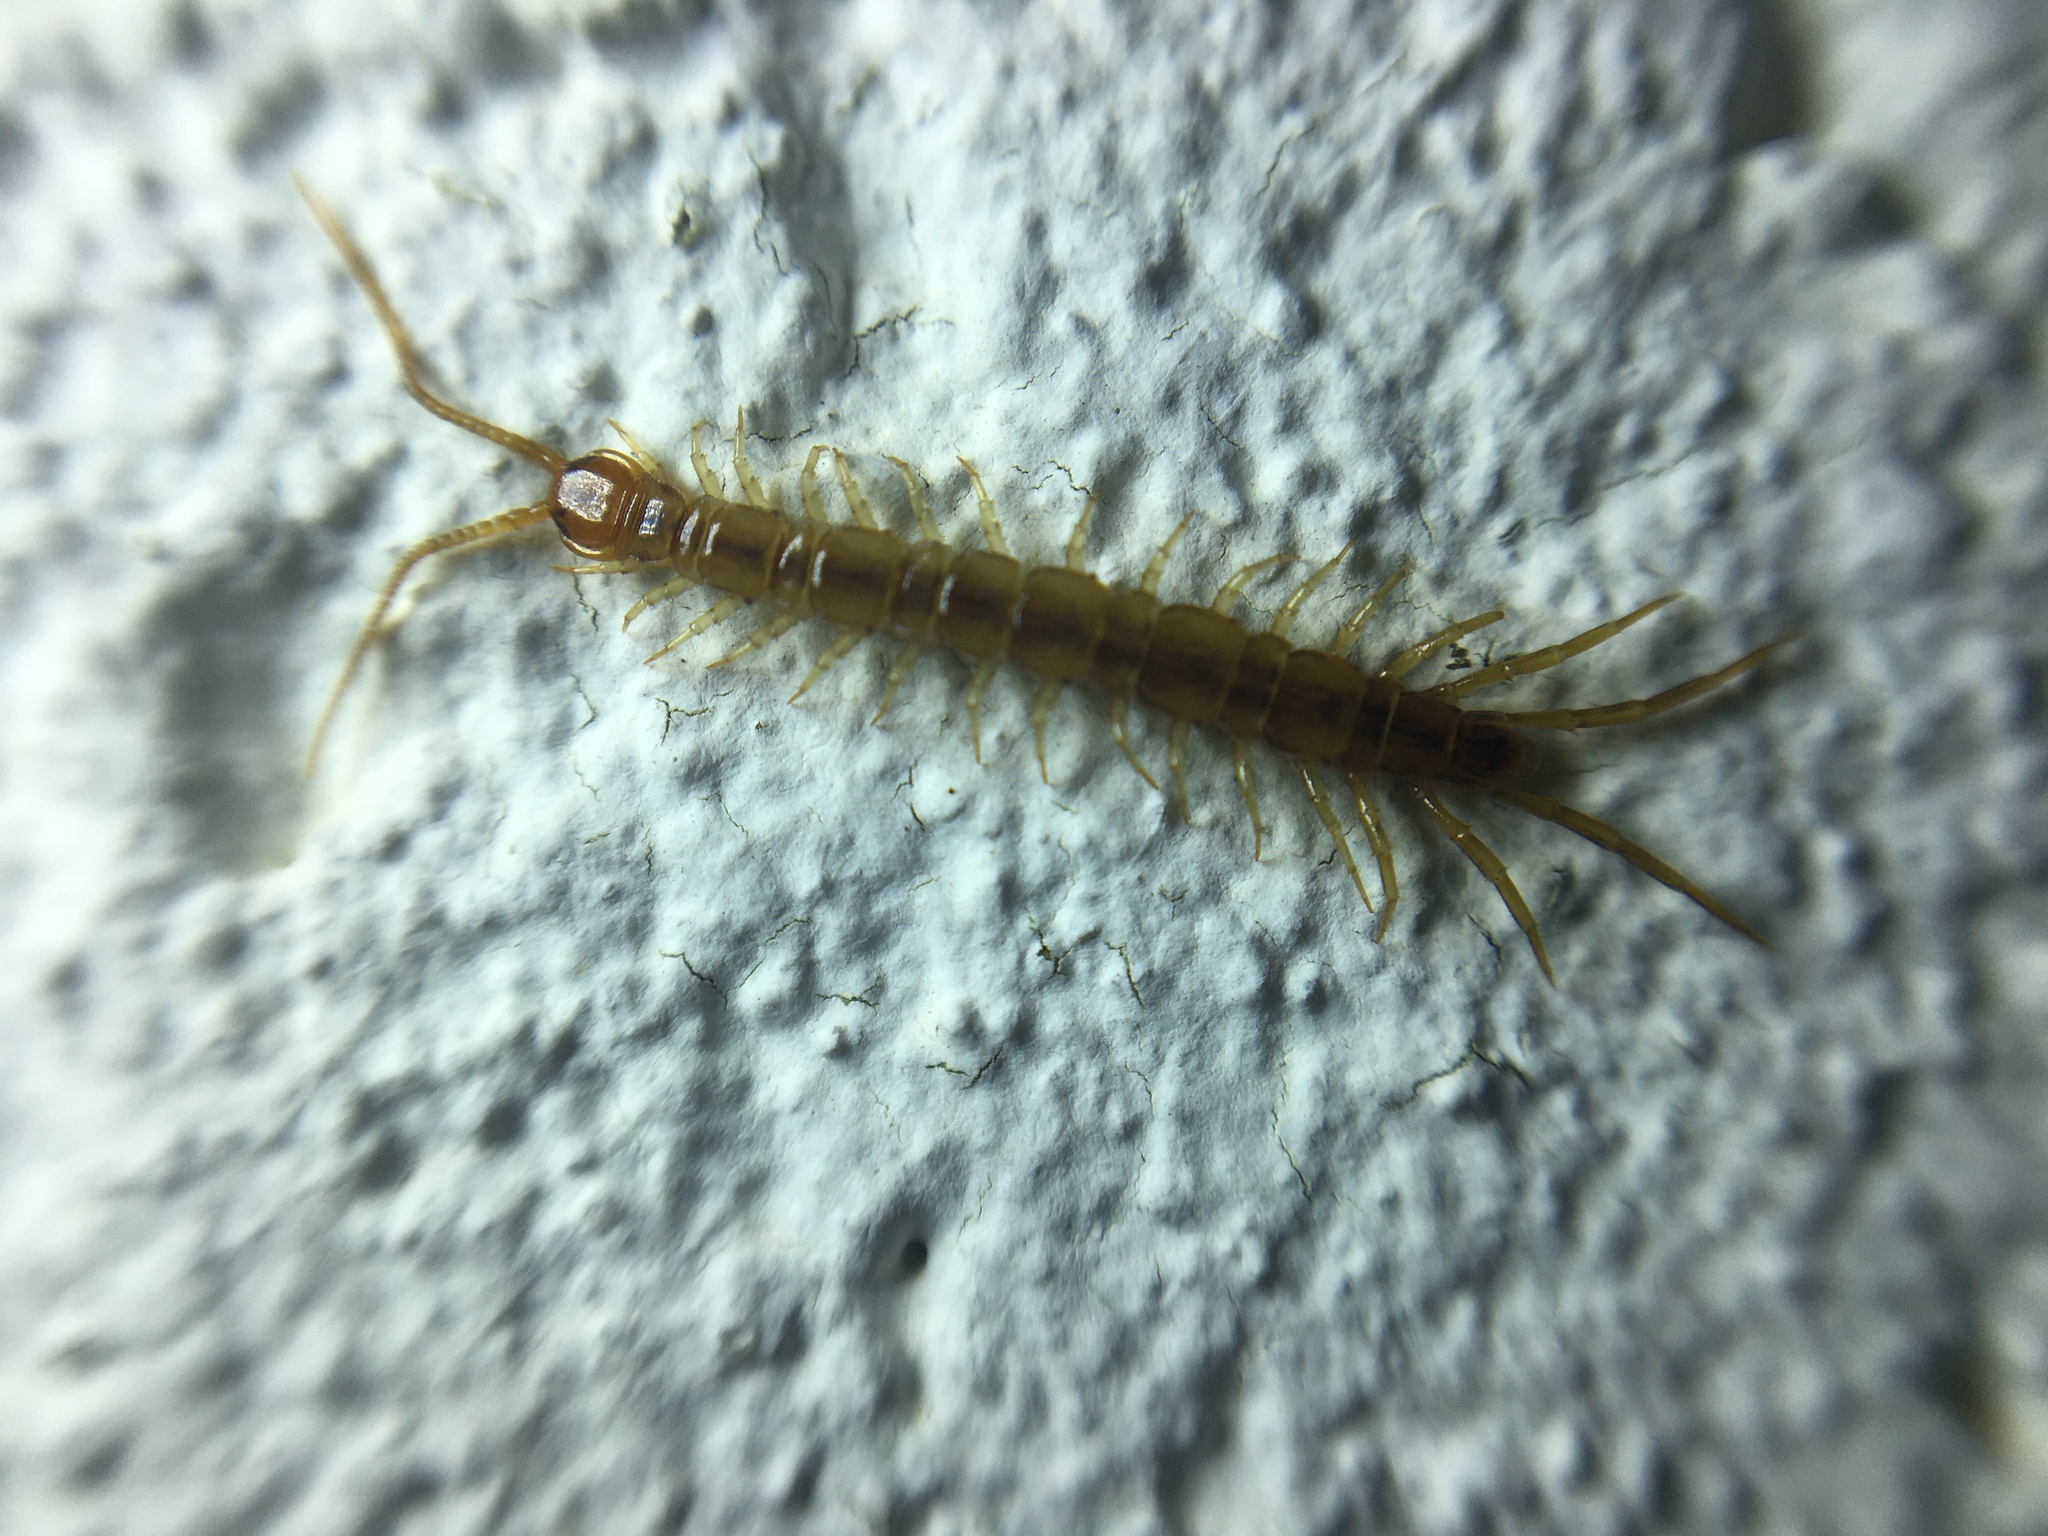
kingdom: Animalia
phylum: Arthropoda
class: Chilopoda
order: Lithobiomorpha
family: Lithobiidae
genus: Lithobius
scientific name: Lithobius melanops
